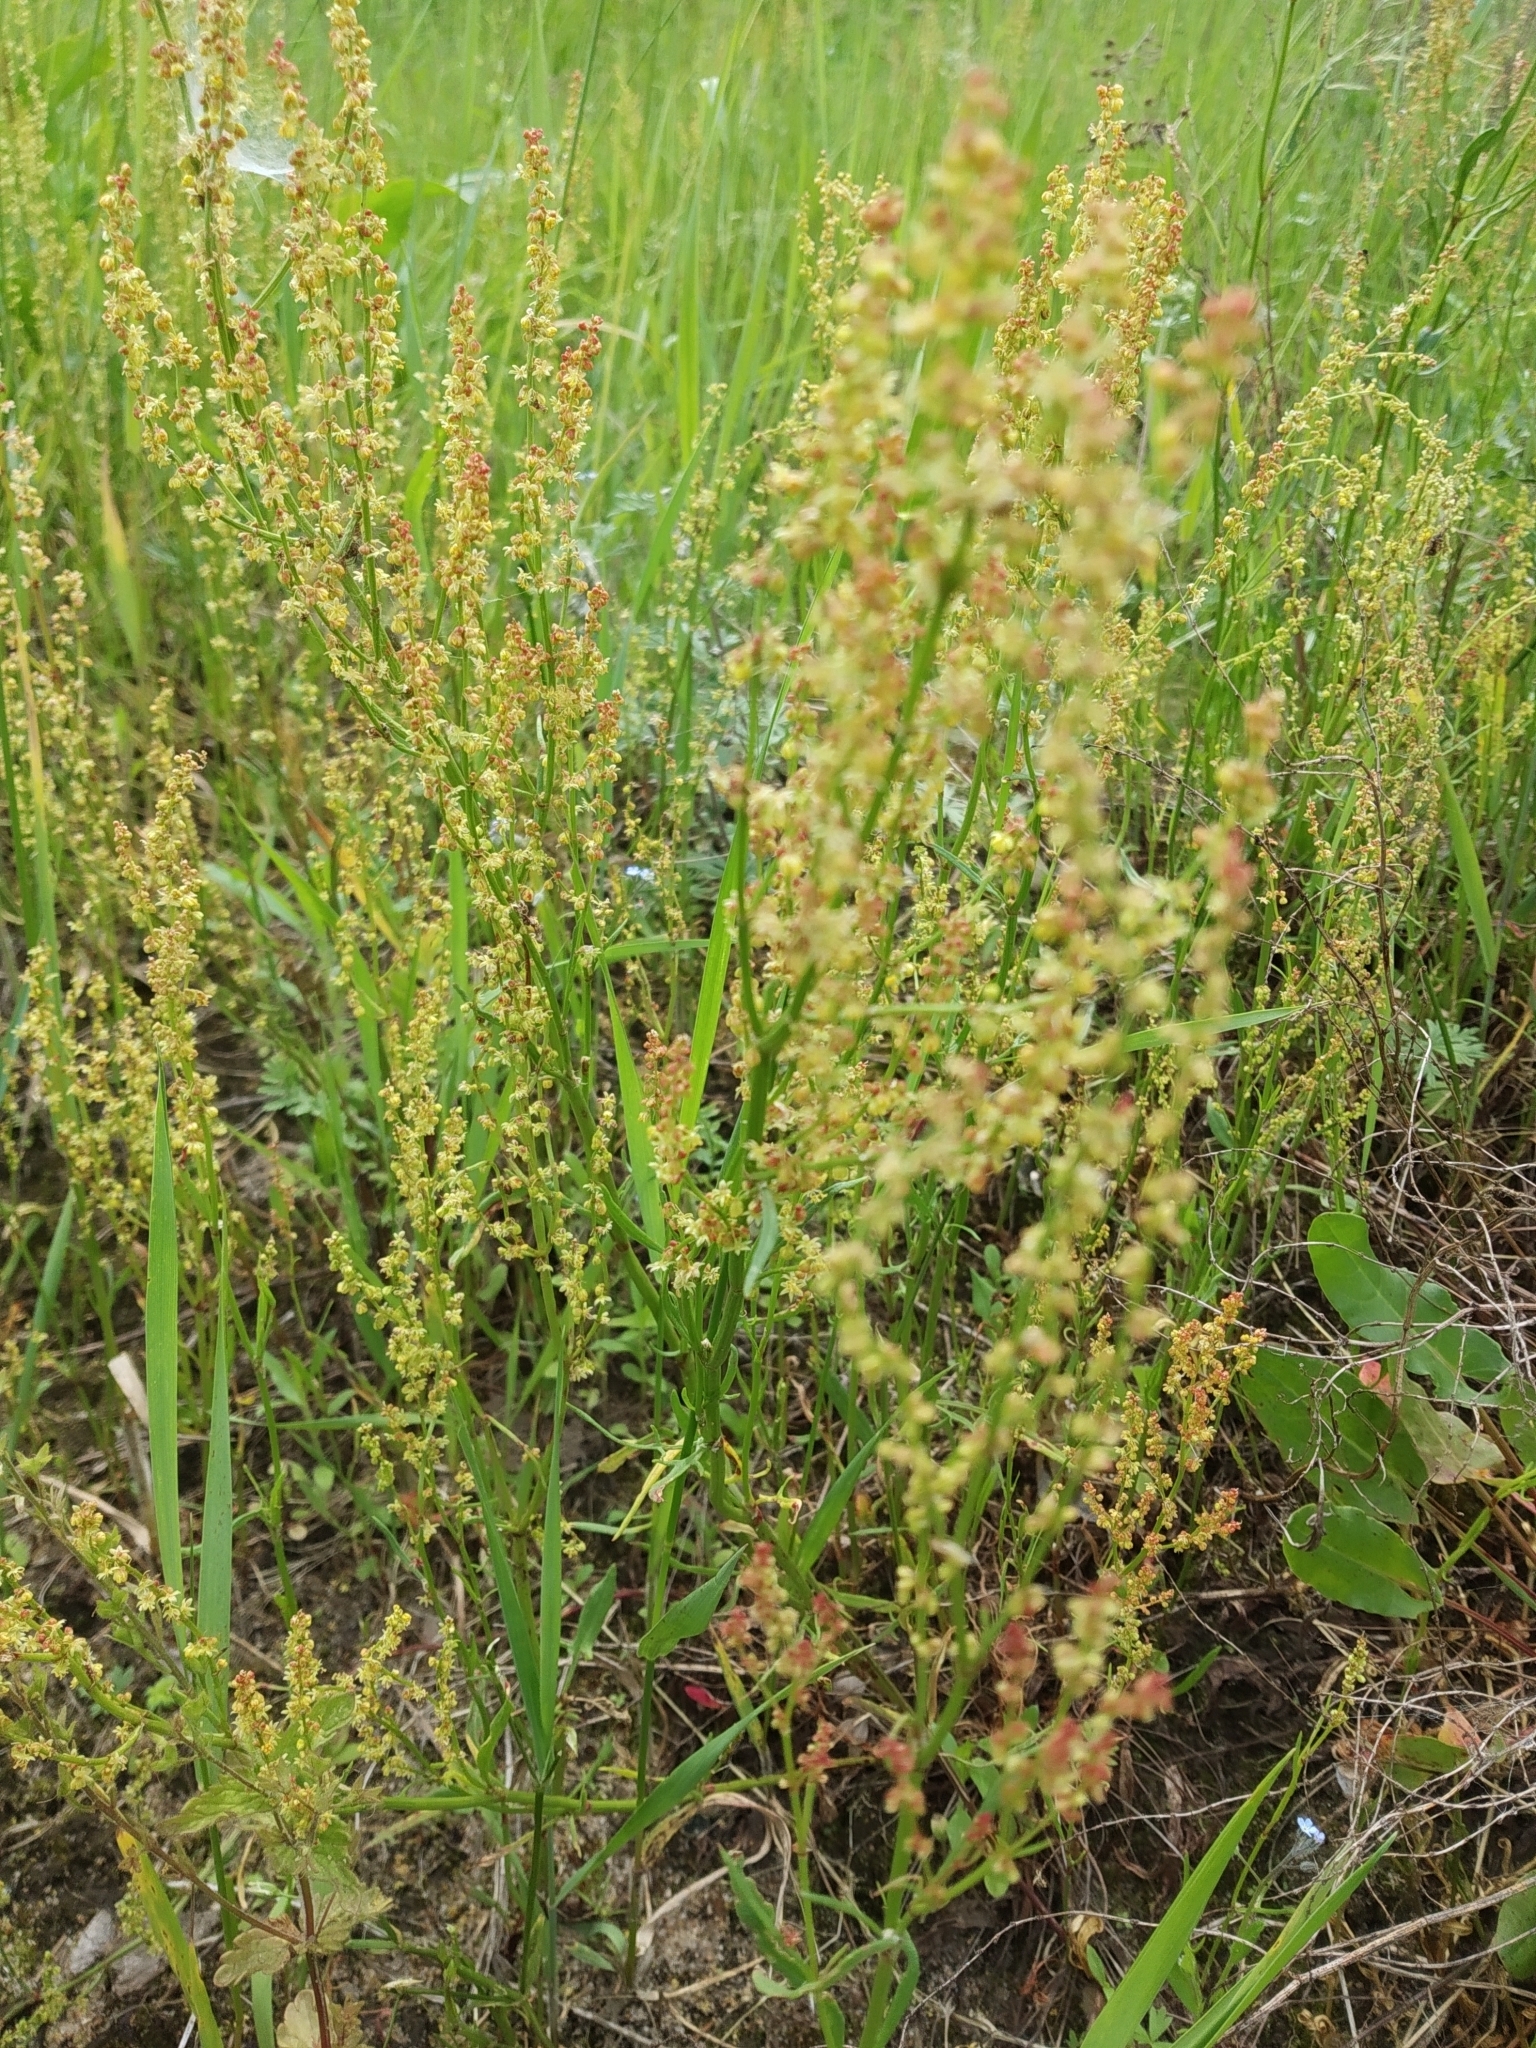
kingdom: Plantae
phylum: Tracheophyta
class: Magnoliopsida
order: Caryophyllales
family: Polygonaceae
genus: Rumex
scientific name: Rumex acetosella
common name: Common sheep sorrel
